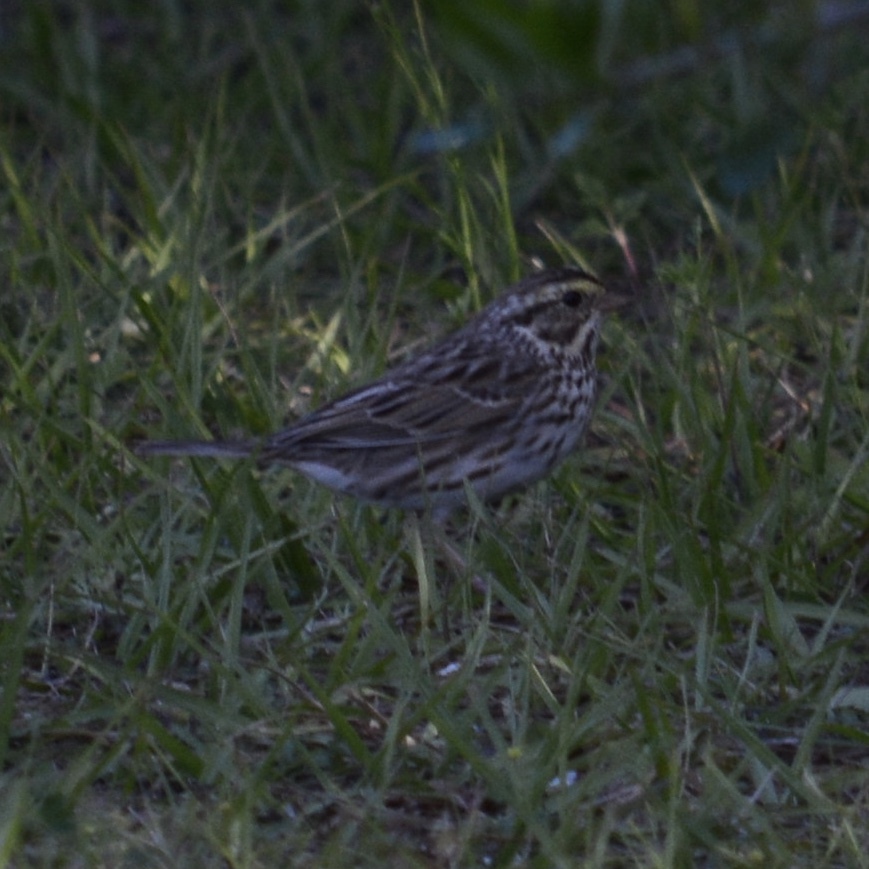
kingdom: Animalia
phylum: Chordata
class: Aves
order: Passeriformes
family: Passerellidae
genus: Passerculus
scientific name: Passerculus sandwichensis
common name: Savannah sparrow
